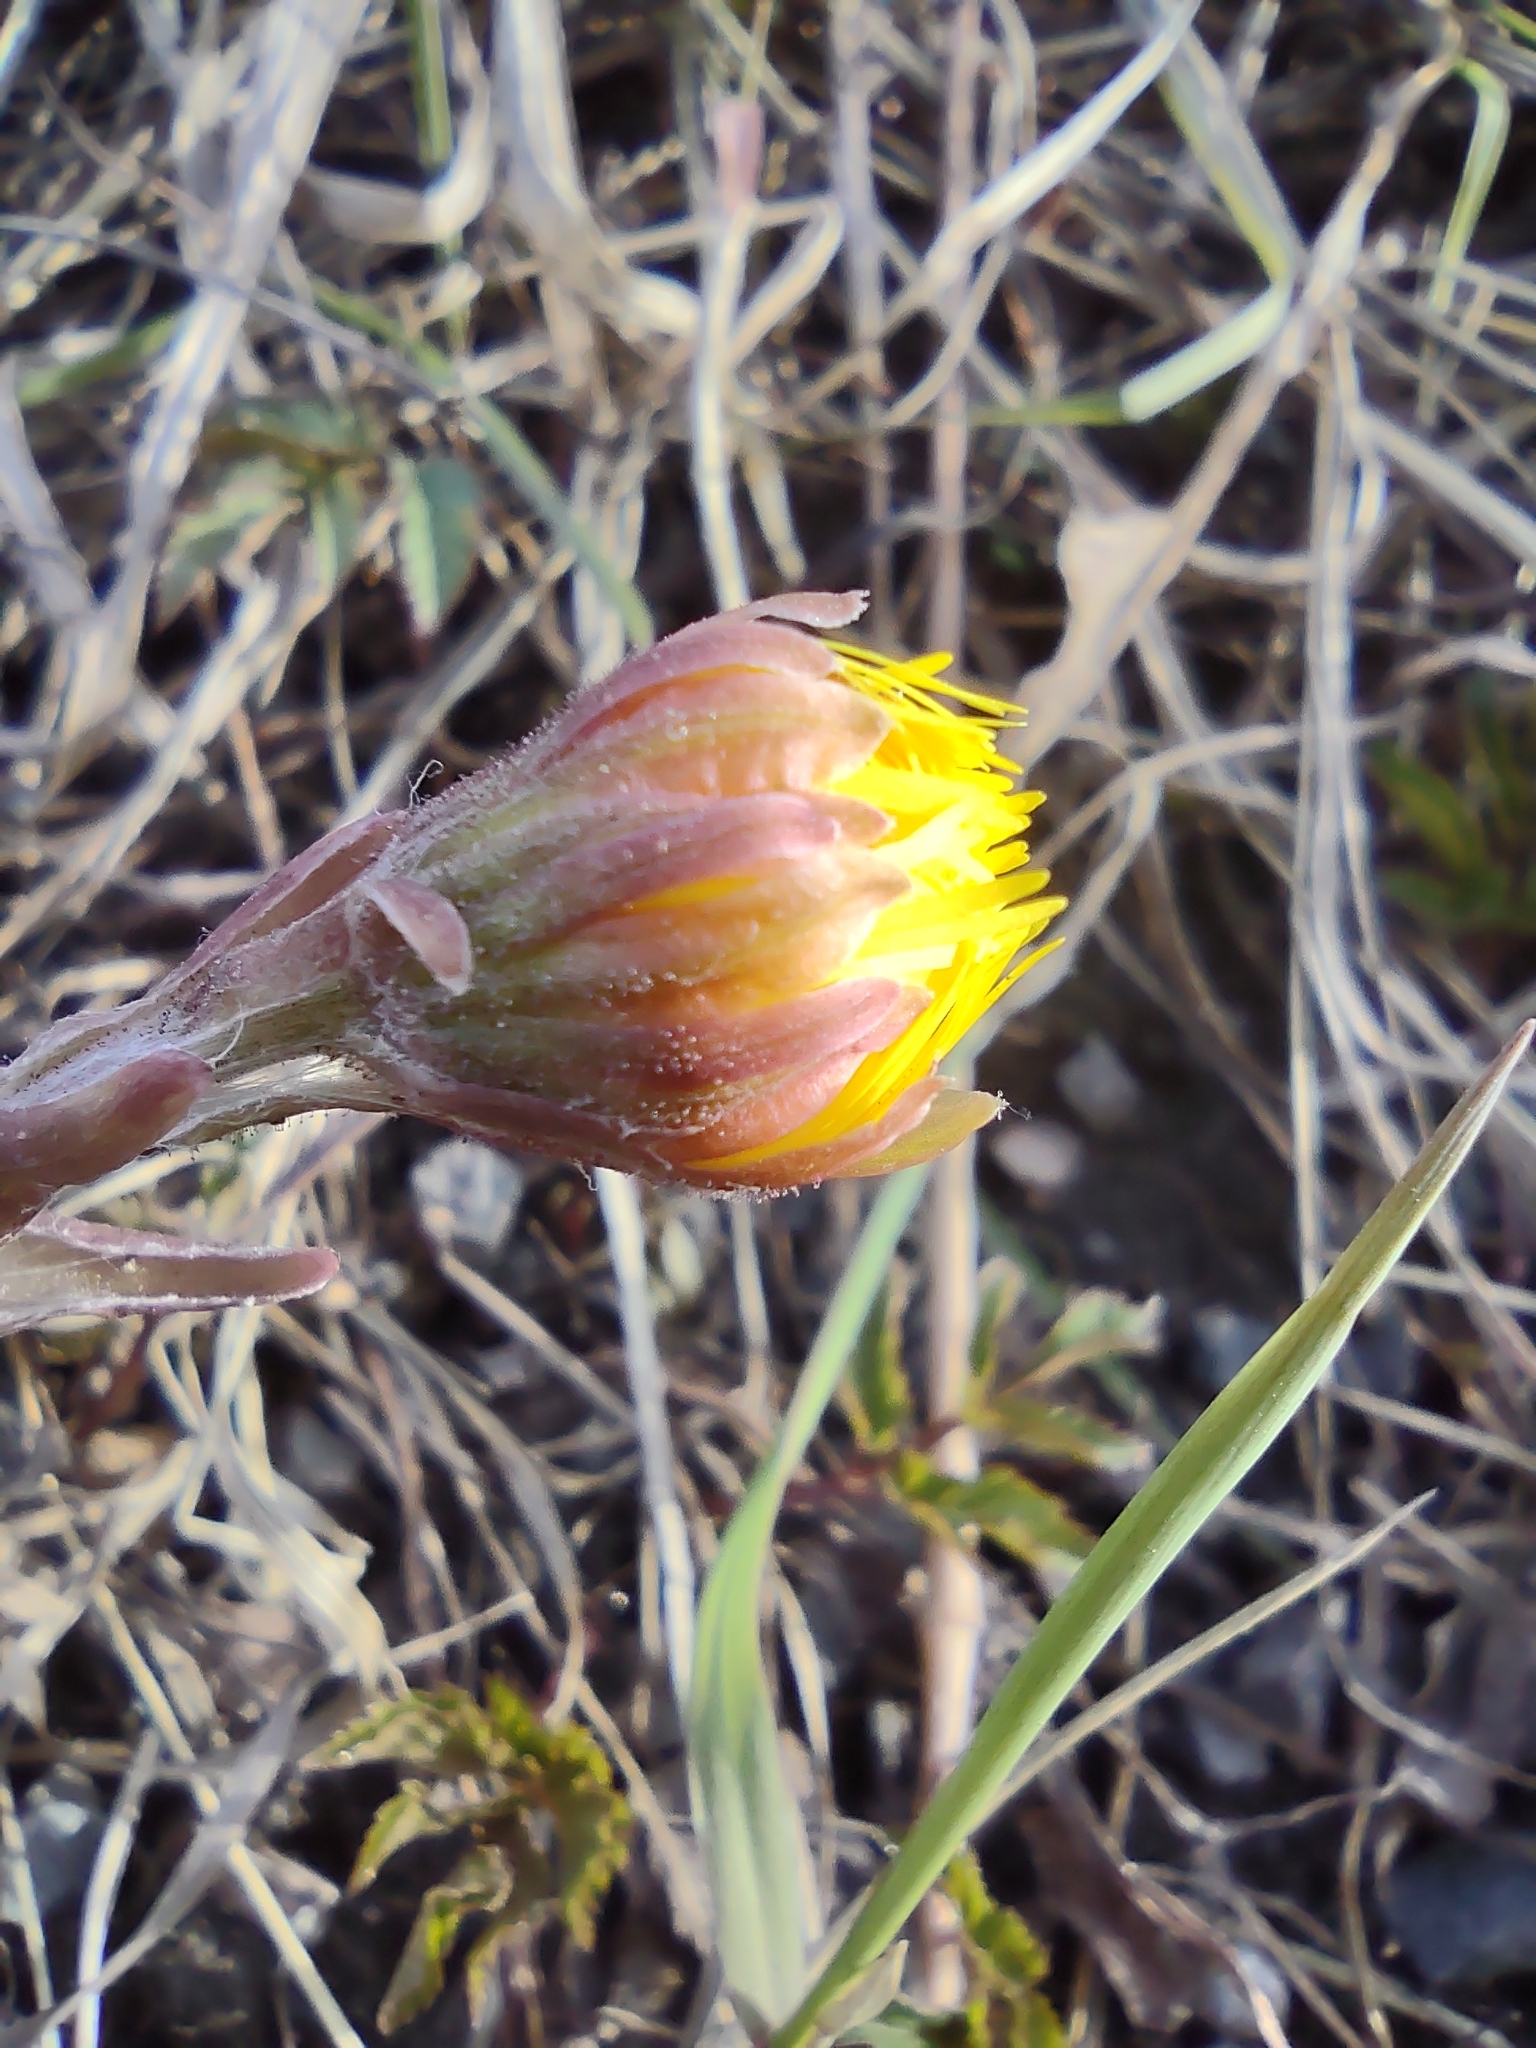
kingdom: Plantae
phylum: Tracheophyta
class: Magnoliopsida
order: Asterales
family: Asteraceae
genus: Tussilago
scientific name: Tussilago farfara
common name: Coltsfoot
